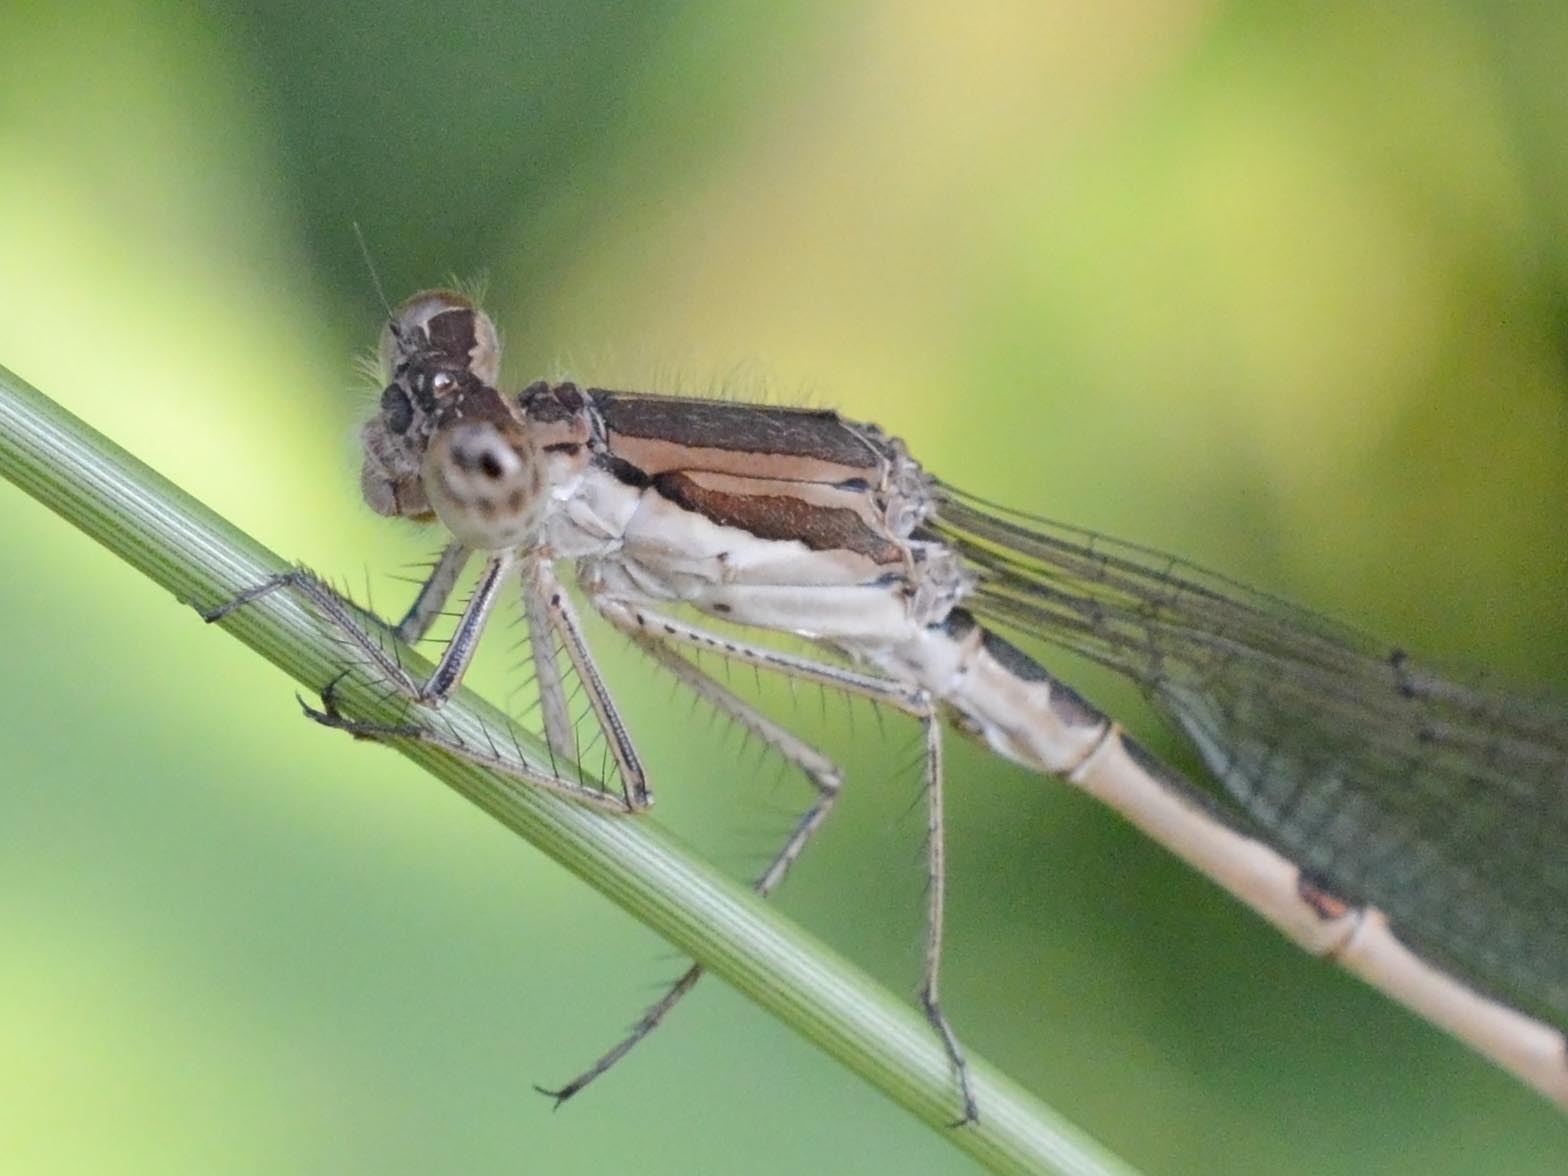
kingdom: Animalia
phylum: Arthropoda
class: Insecta
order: Odonata
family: Lestidae
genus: Sympecma
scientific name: Sympecma fusca
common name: Common winter damsel
